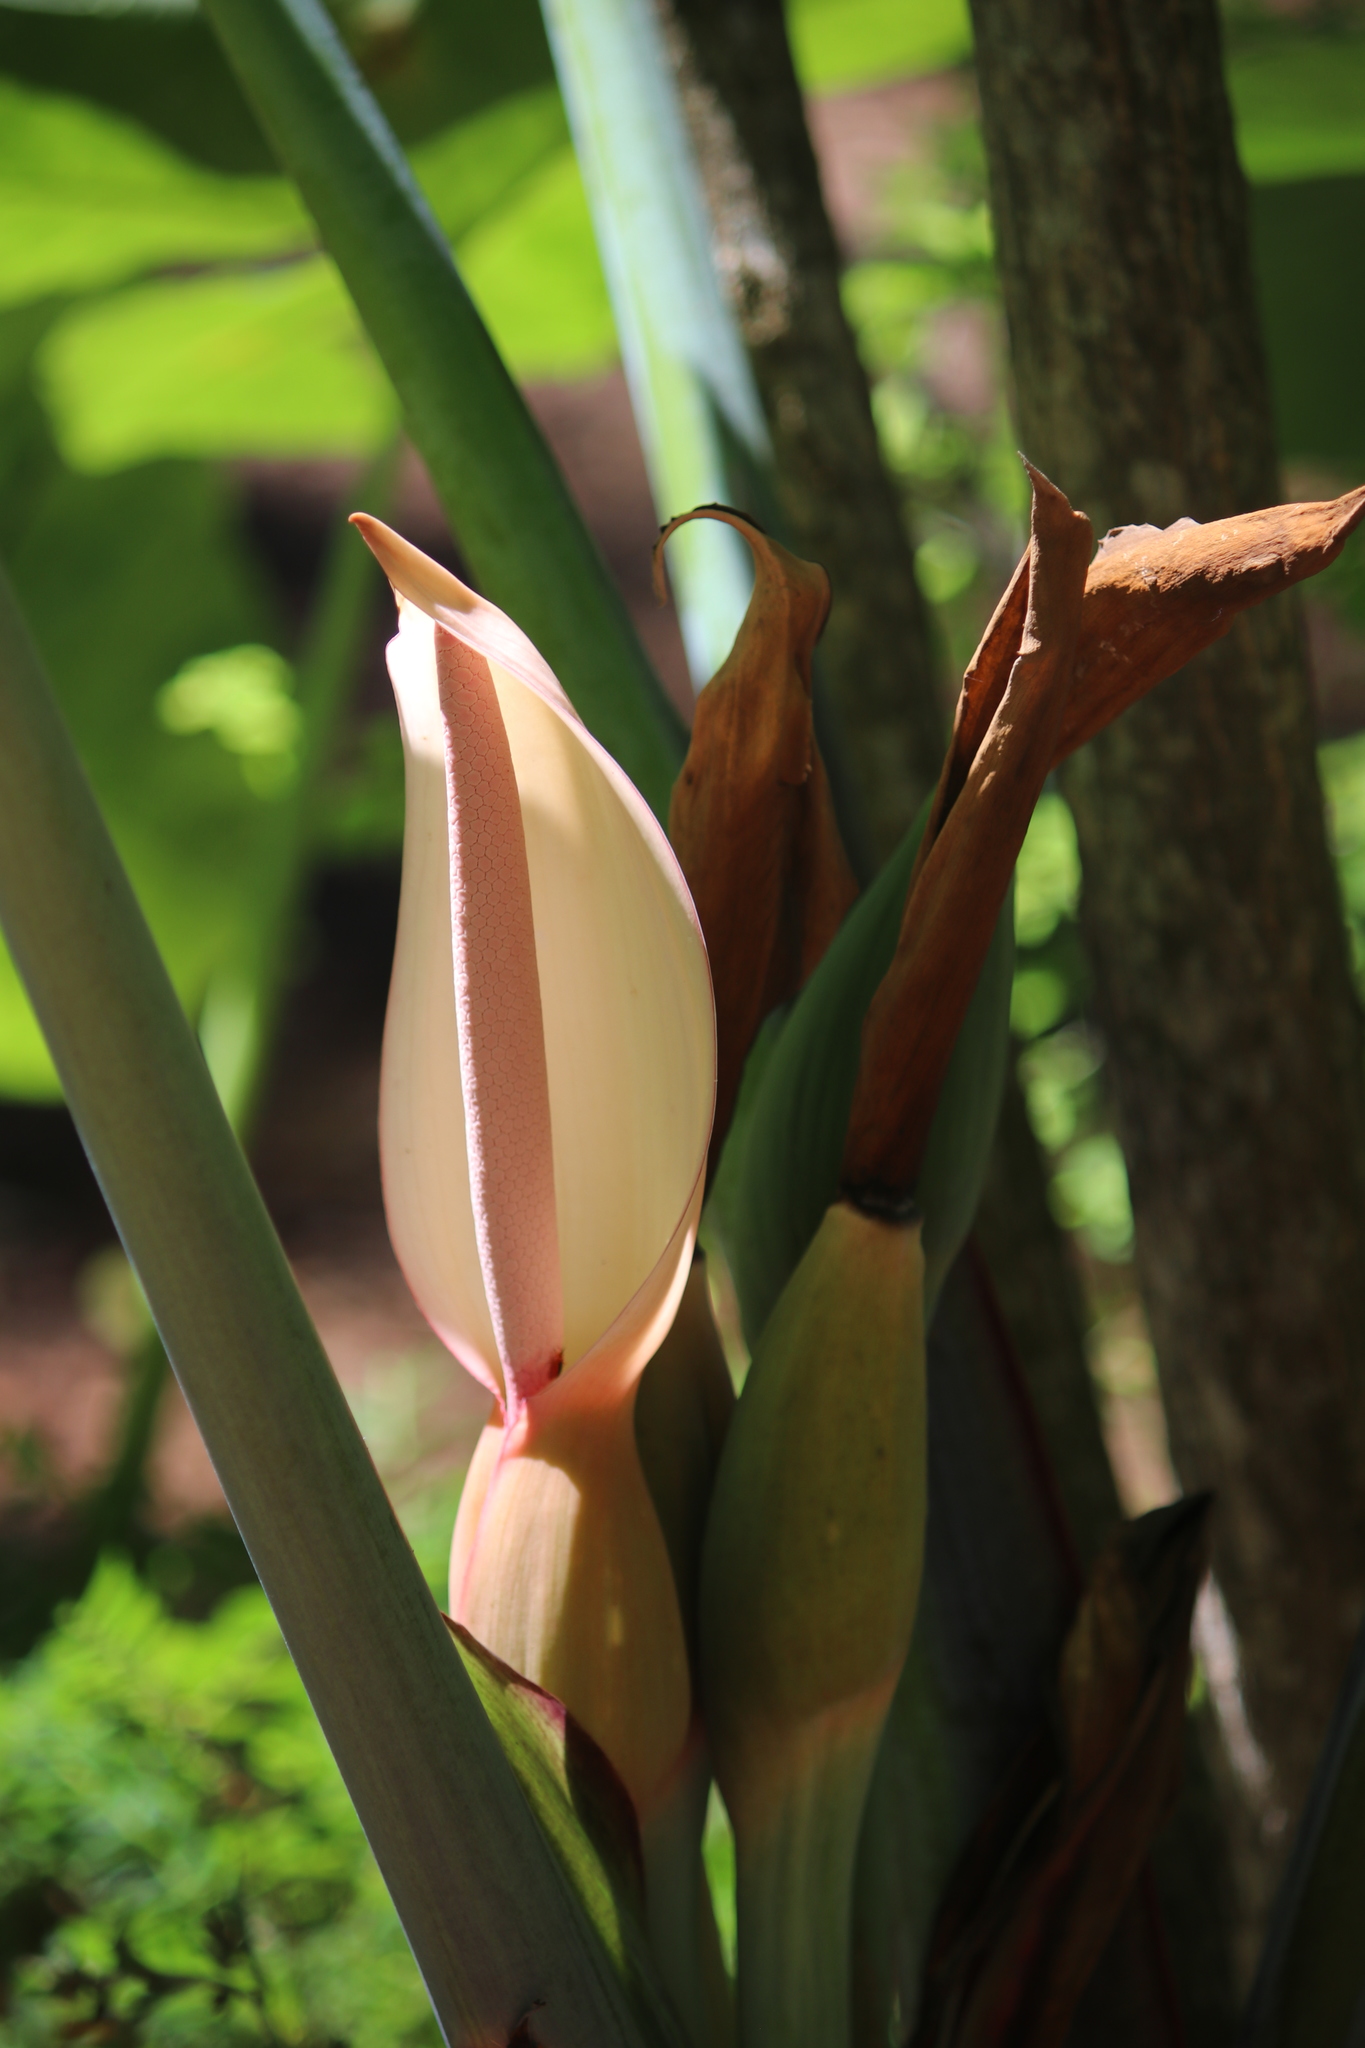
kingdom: Plantae
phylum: Tracheophyta
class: Liliopsida
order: Alismatales
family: Araceae
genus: Xanthosoma
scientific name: Xanthosoma sagittifolium
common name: Arrowleaf elephant's ear
